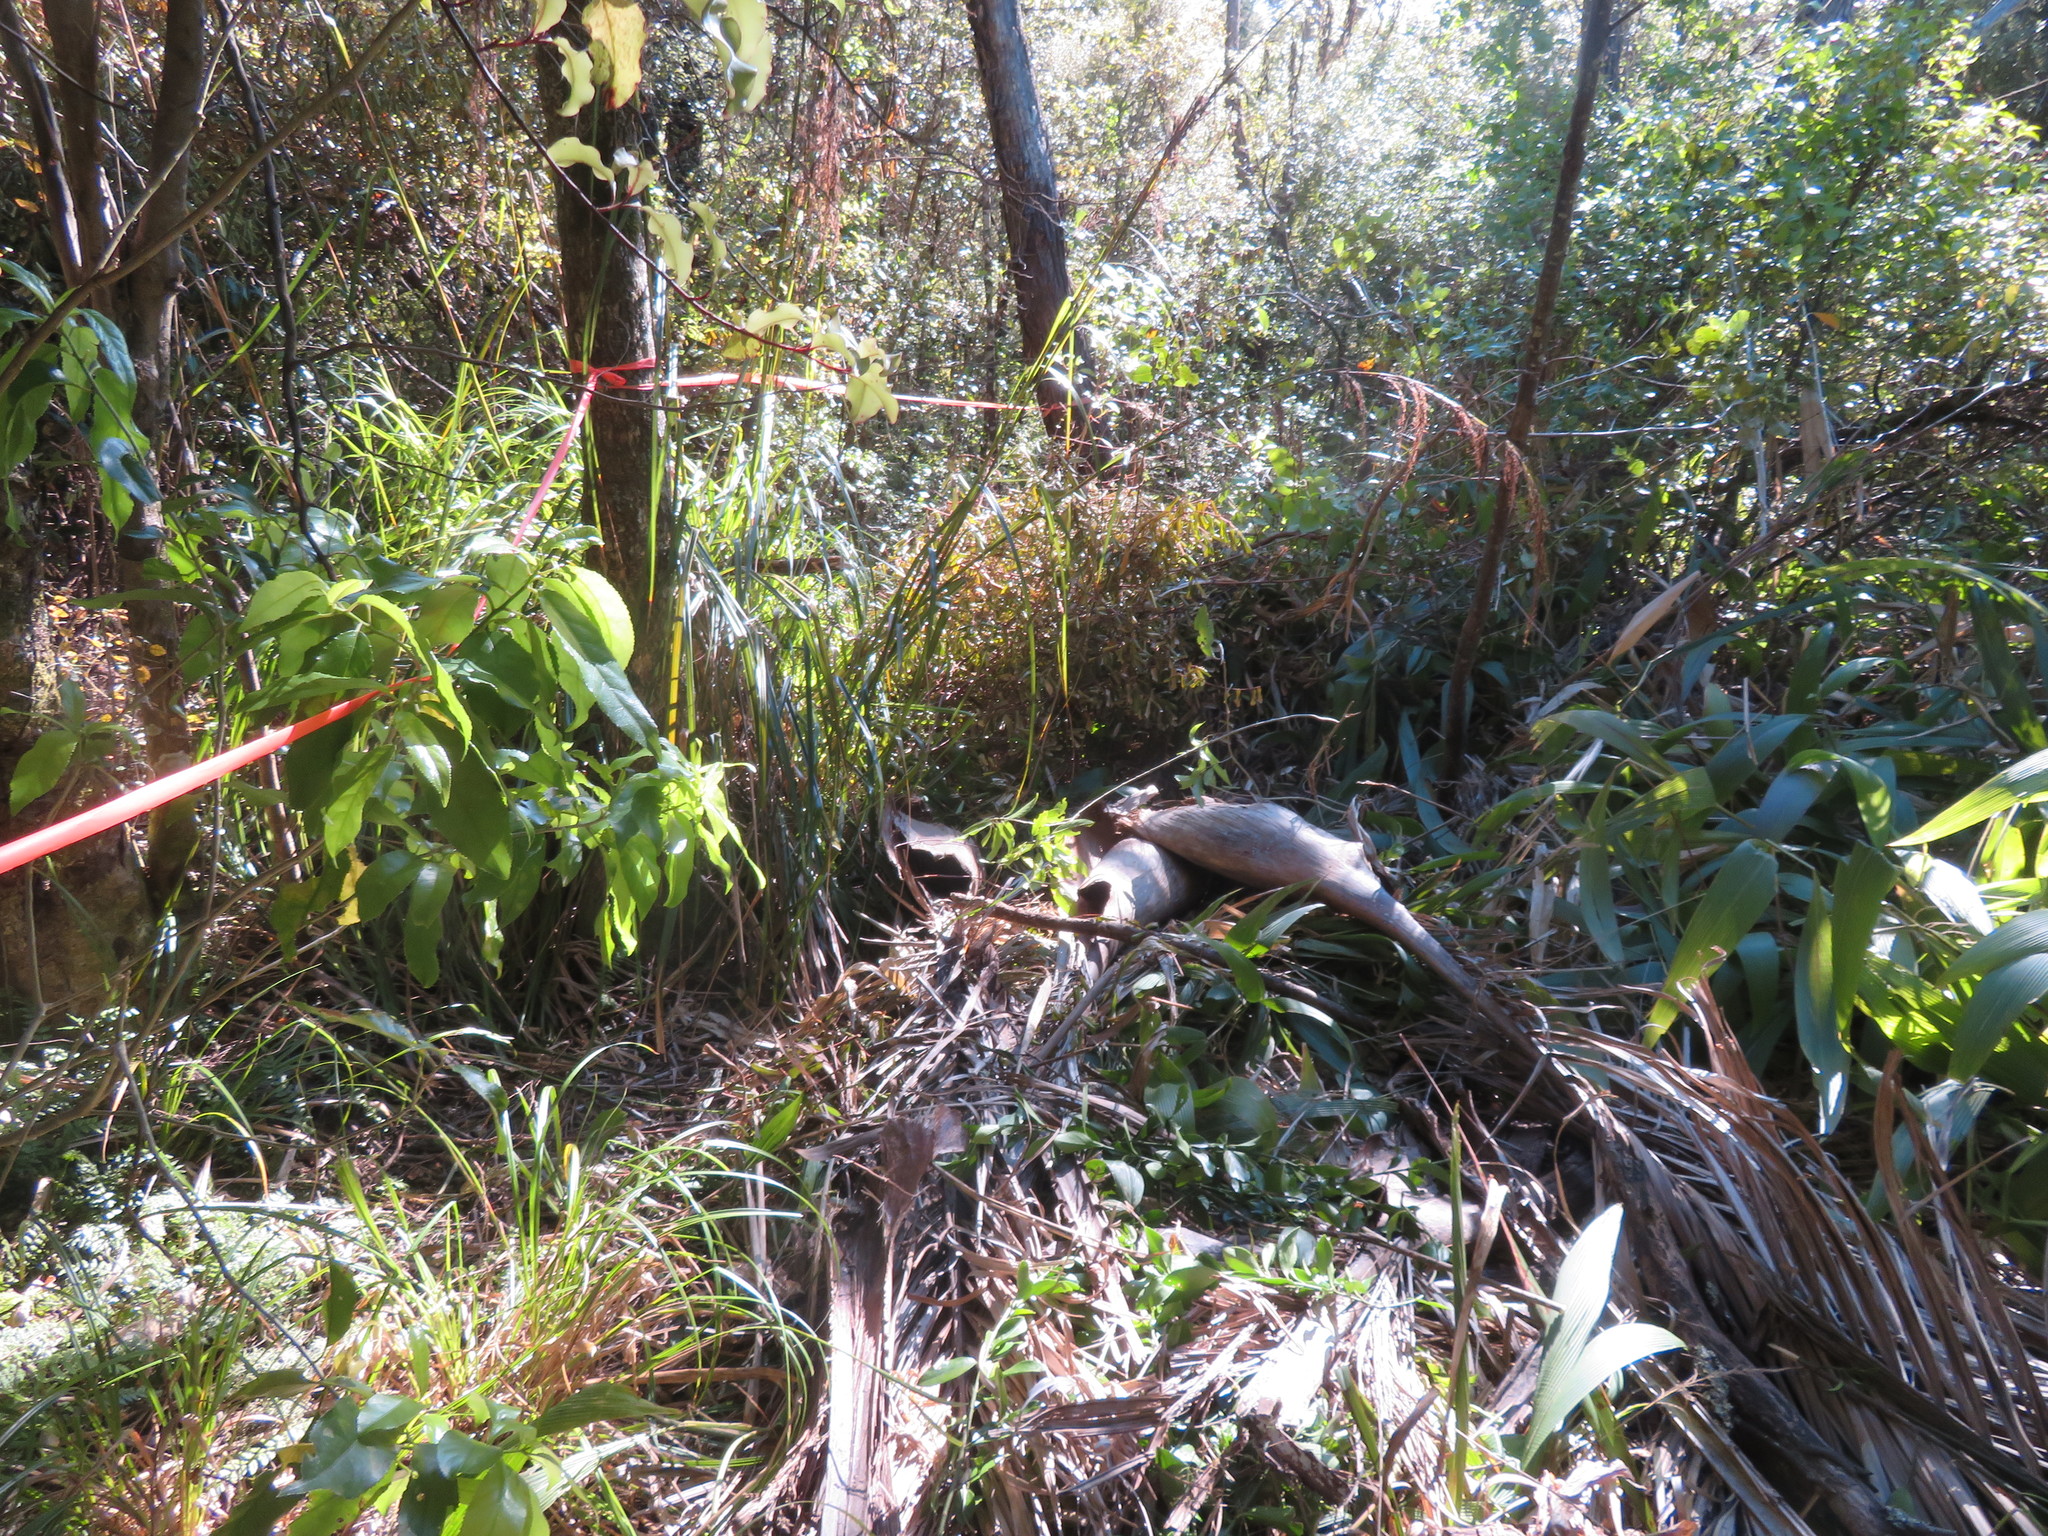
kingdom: Plantae
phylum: Tracheophyta
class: Liliopsida
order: Poales
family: Poaceae
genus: Setaria
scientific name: Setaria palmifolia
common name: Broadleaved bristlegrass
